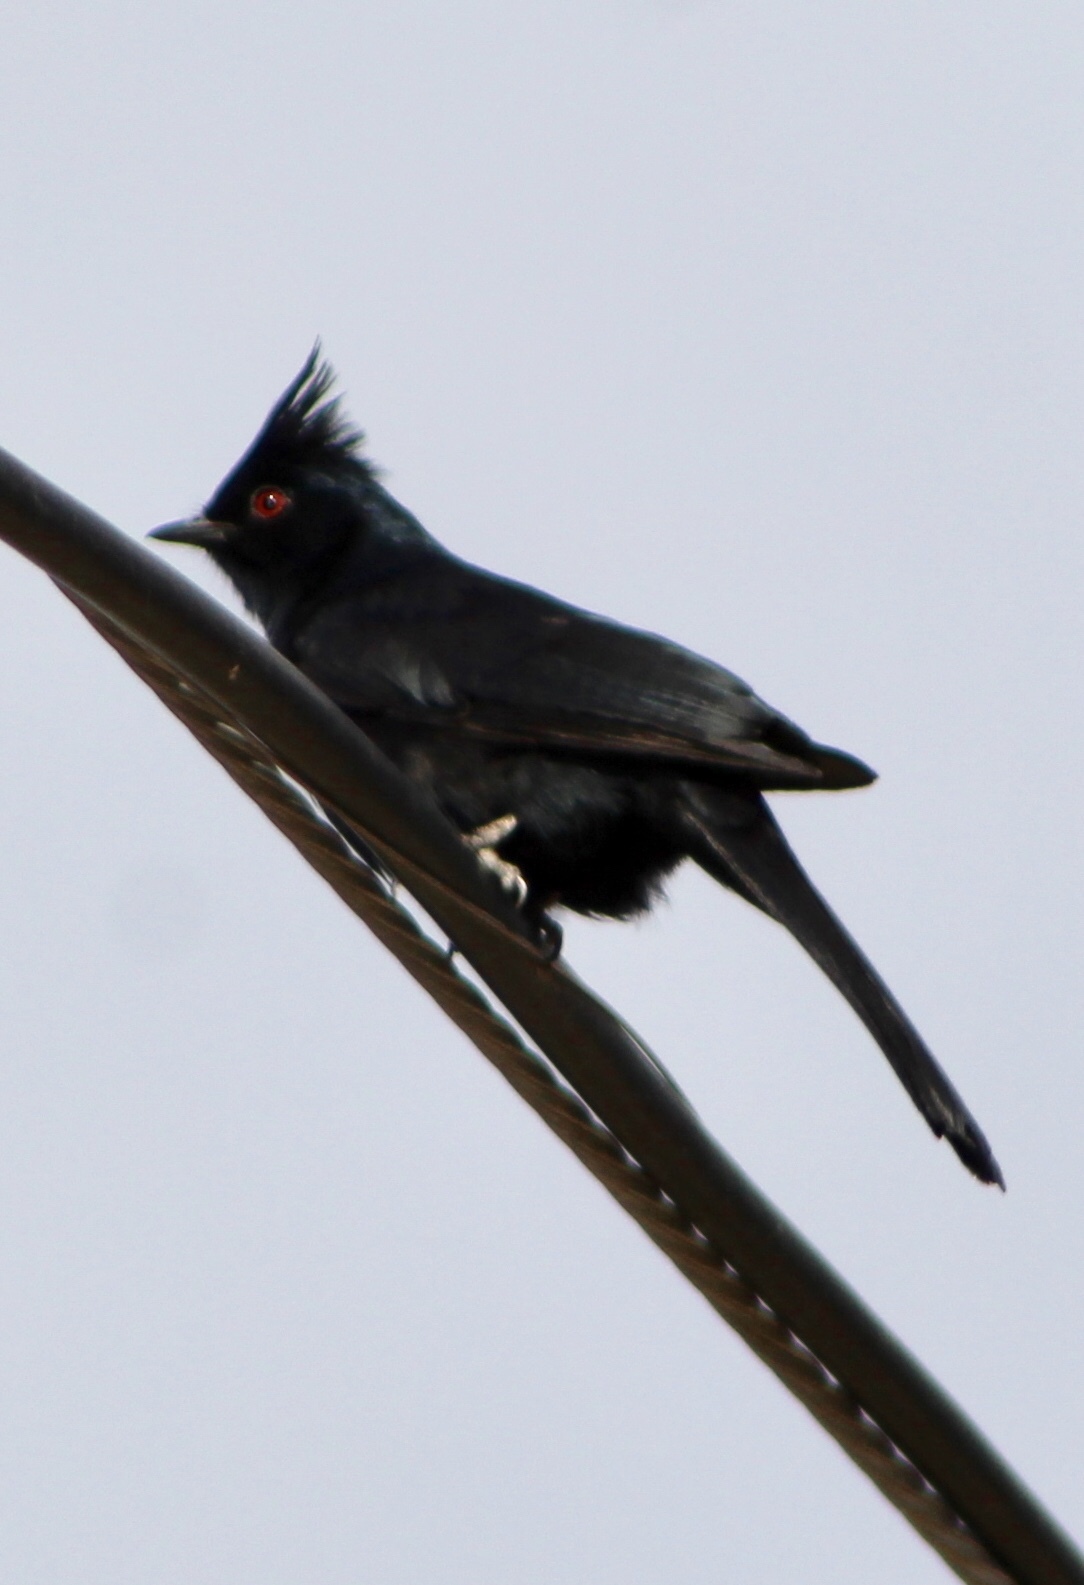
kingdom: Animalia
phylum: Chordata
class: Aves
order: Passeriformes
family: Ptilogonatidae
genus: Phainopepla
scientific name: Phainopepla nitens
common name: Phainopepla
